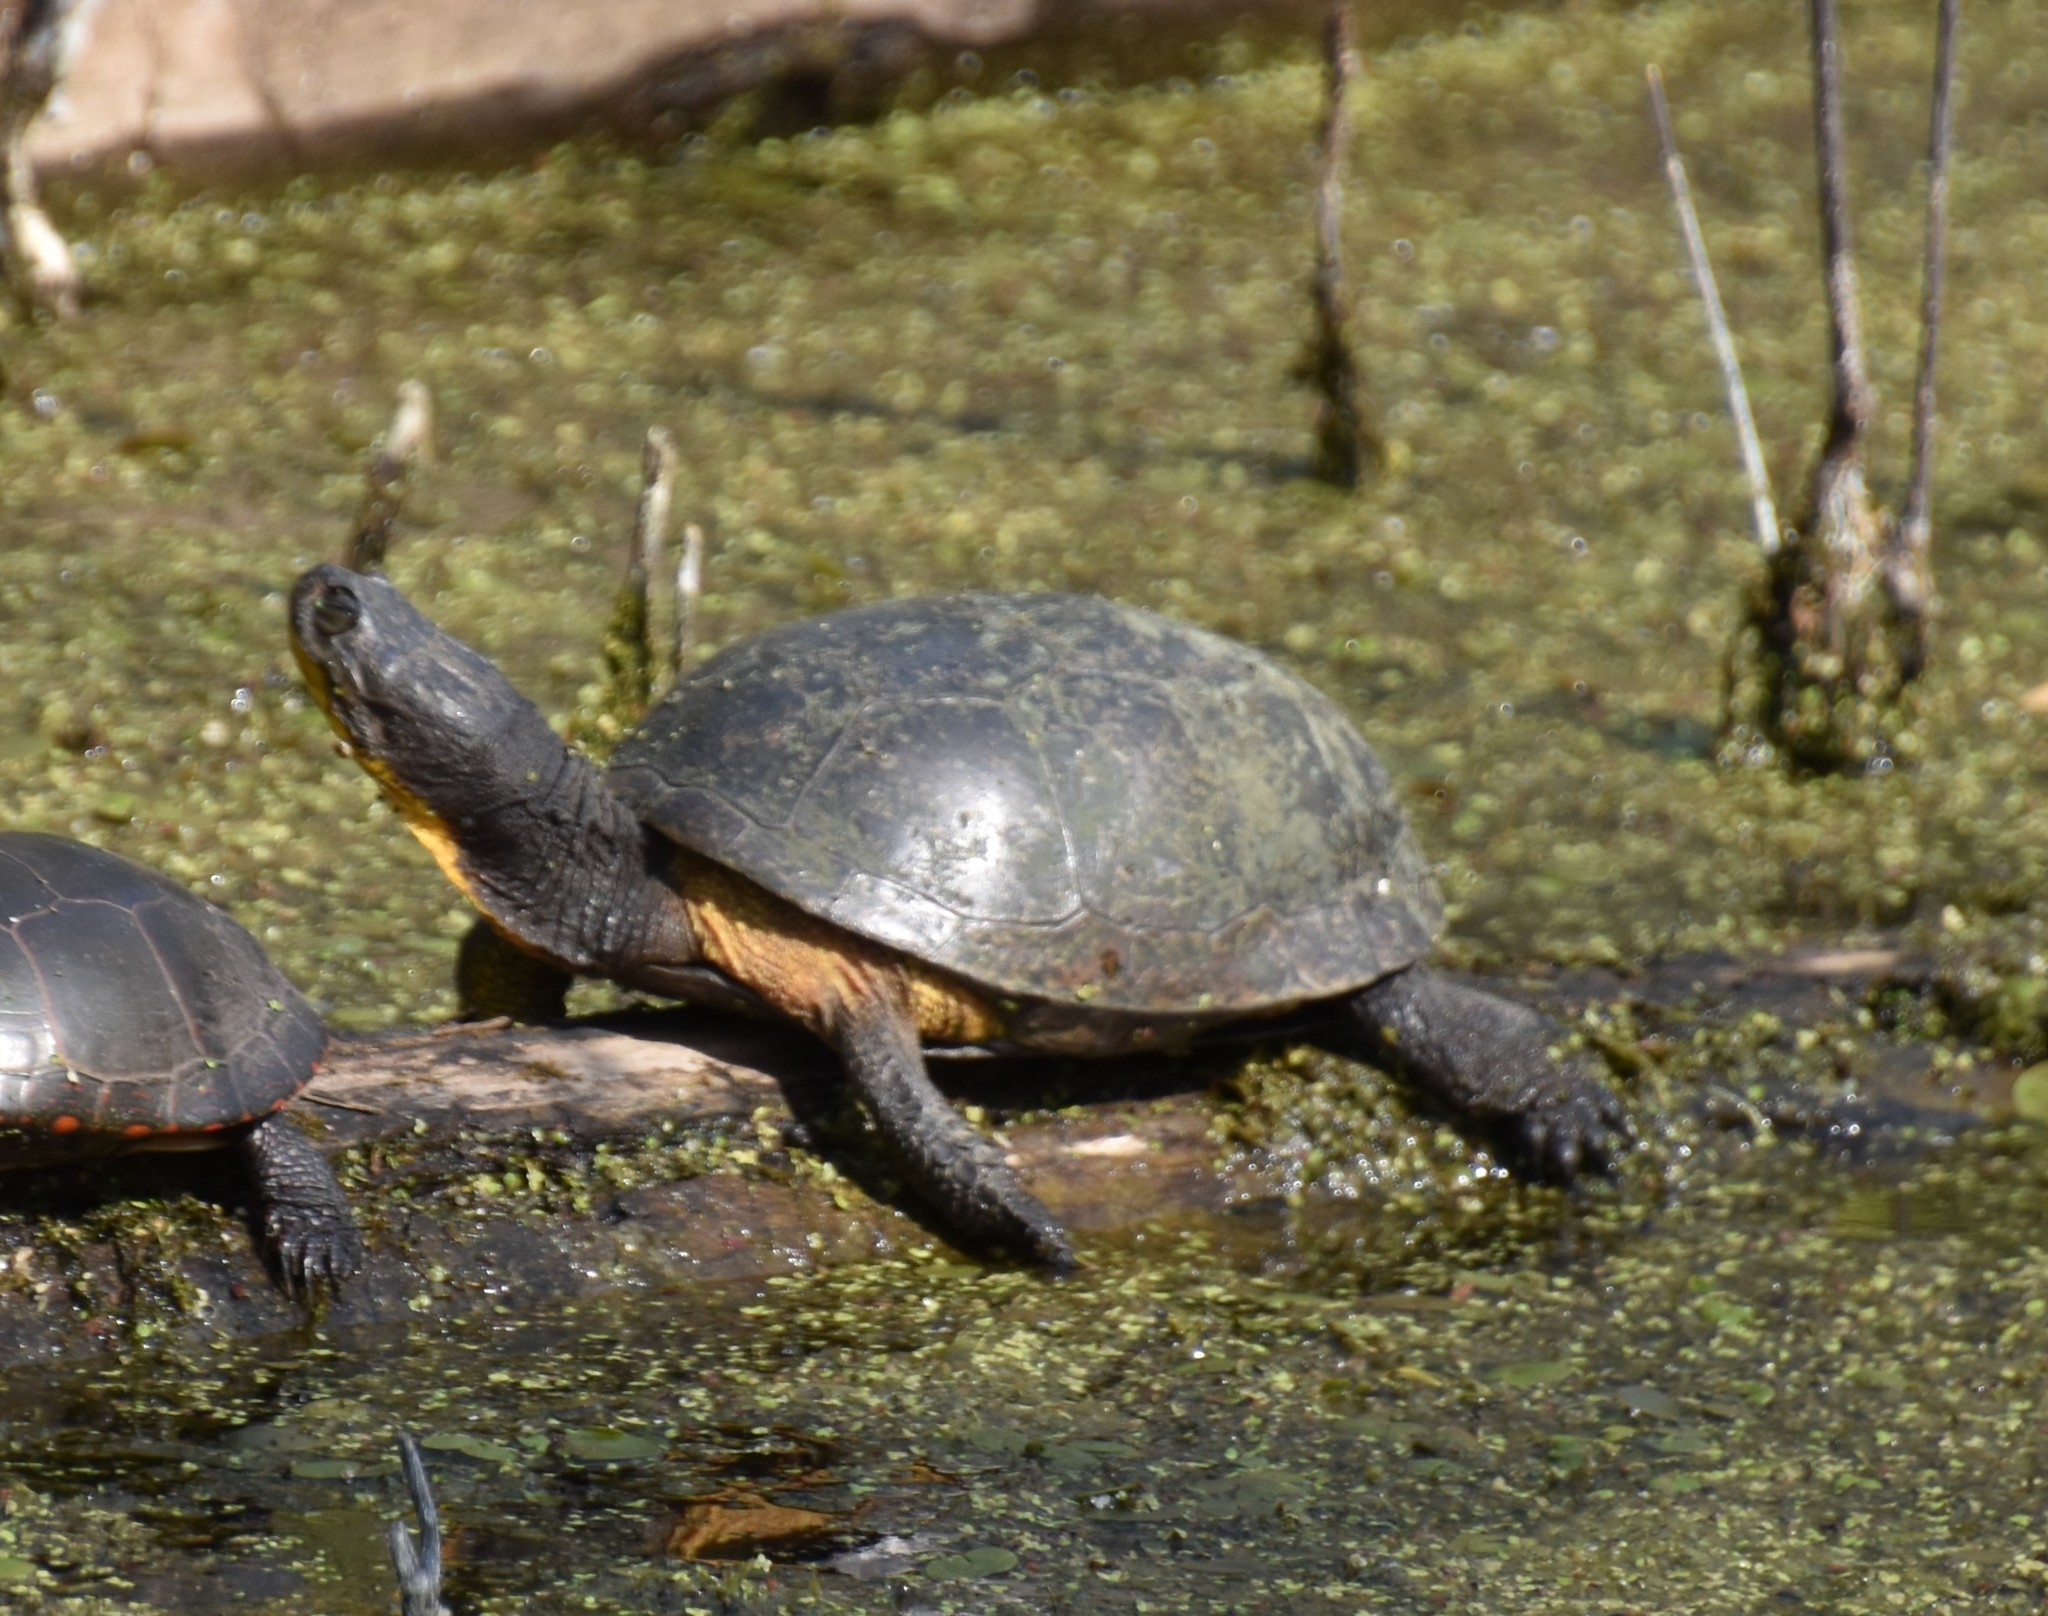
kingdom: Animalia
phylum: Chordata
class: Testudines
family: Emydidae
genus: Emys
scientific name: Emys blandingii
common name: Blanding's turtle
